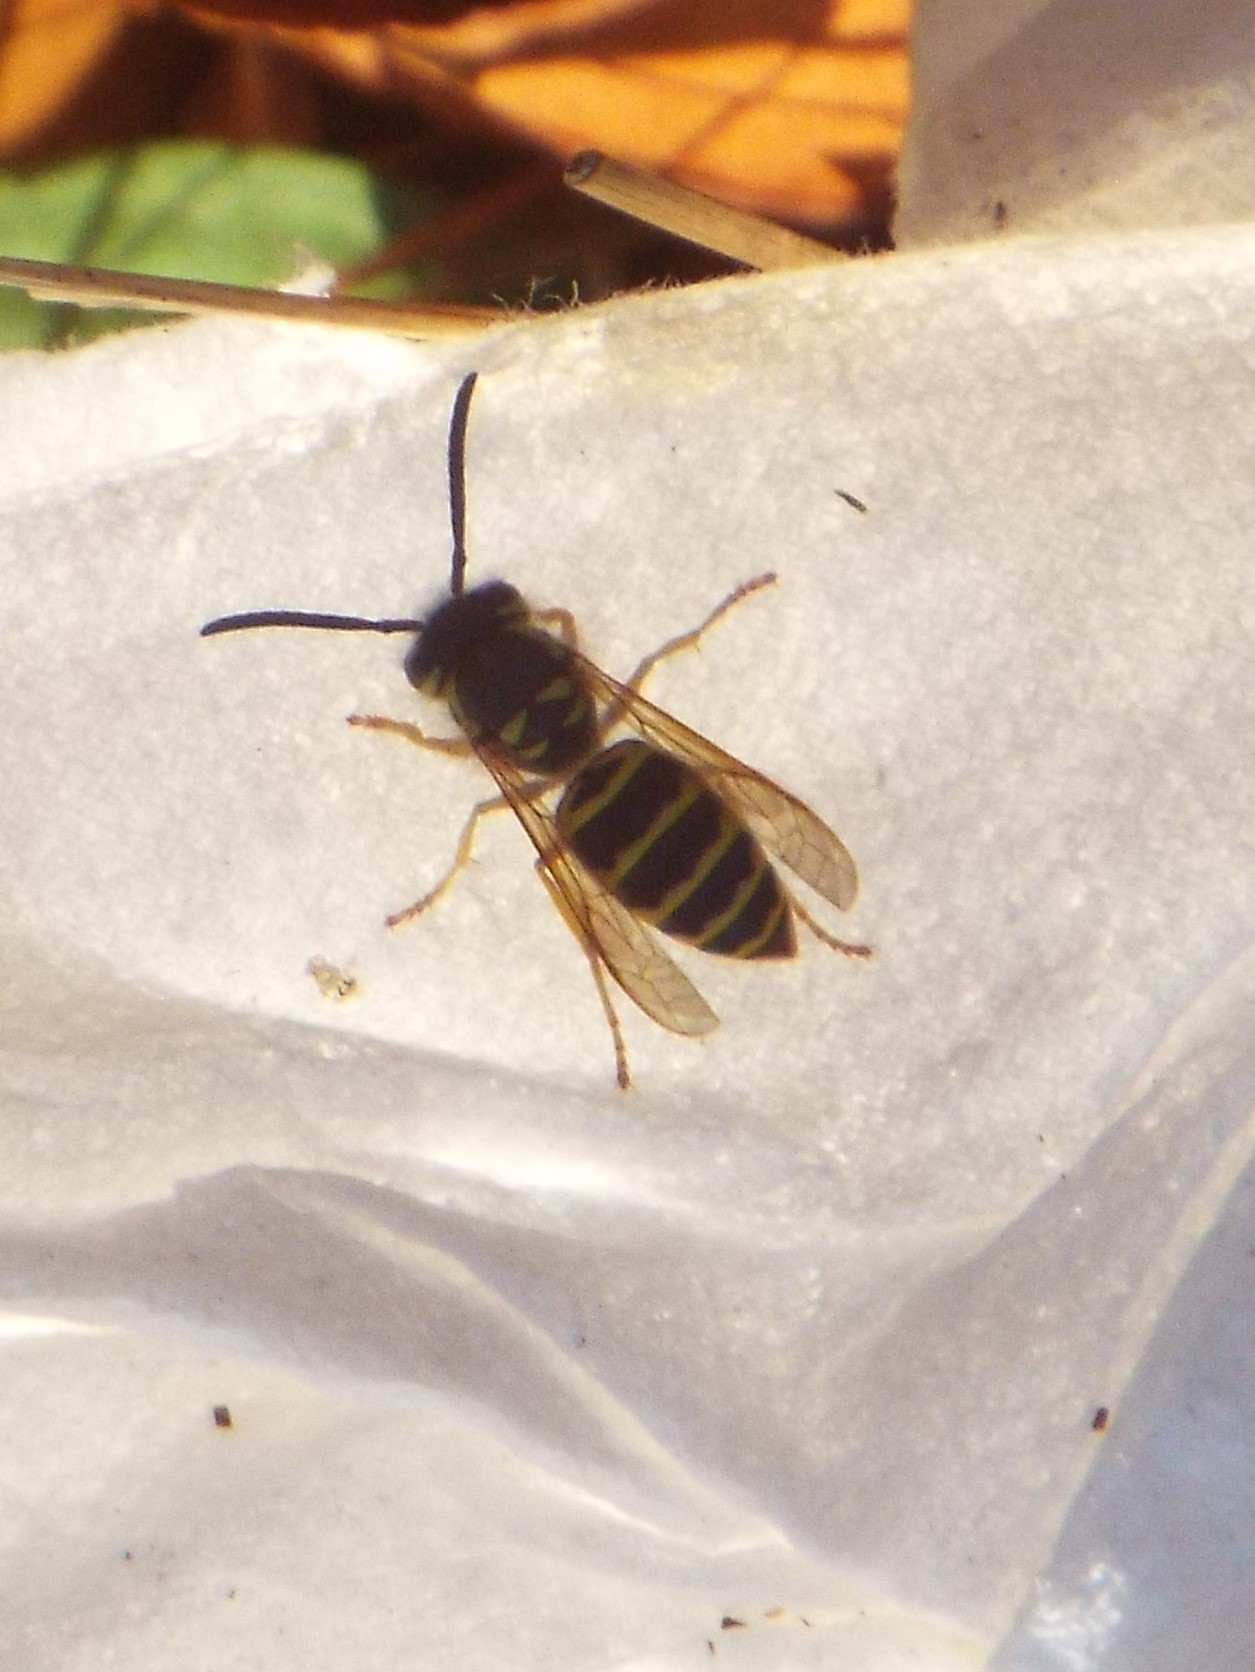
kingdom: Animalia
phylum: Arthropoda
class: Insecta
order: Hymenoptera
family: Vespidae
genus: Vespula
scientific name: Vespula maculifrons
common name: Eastern yellowjacket
